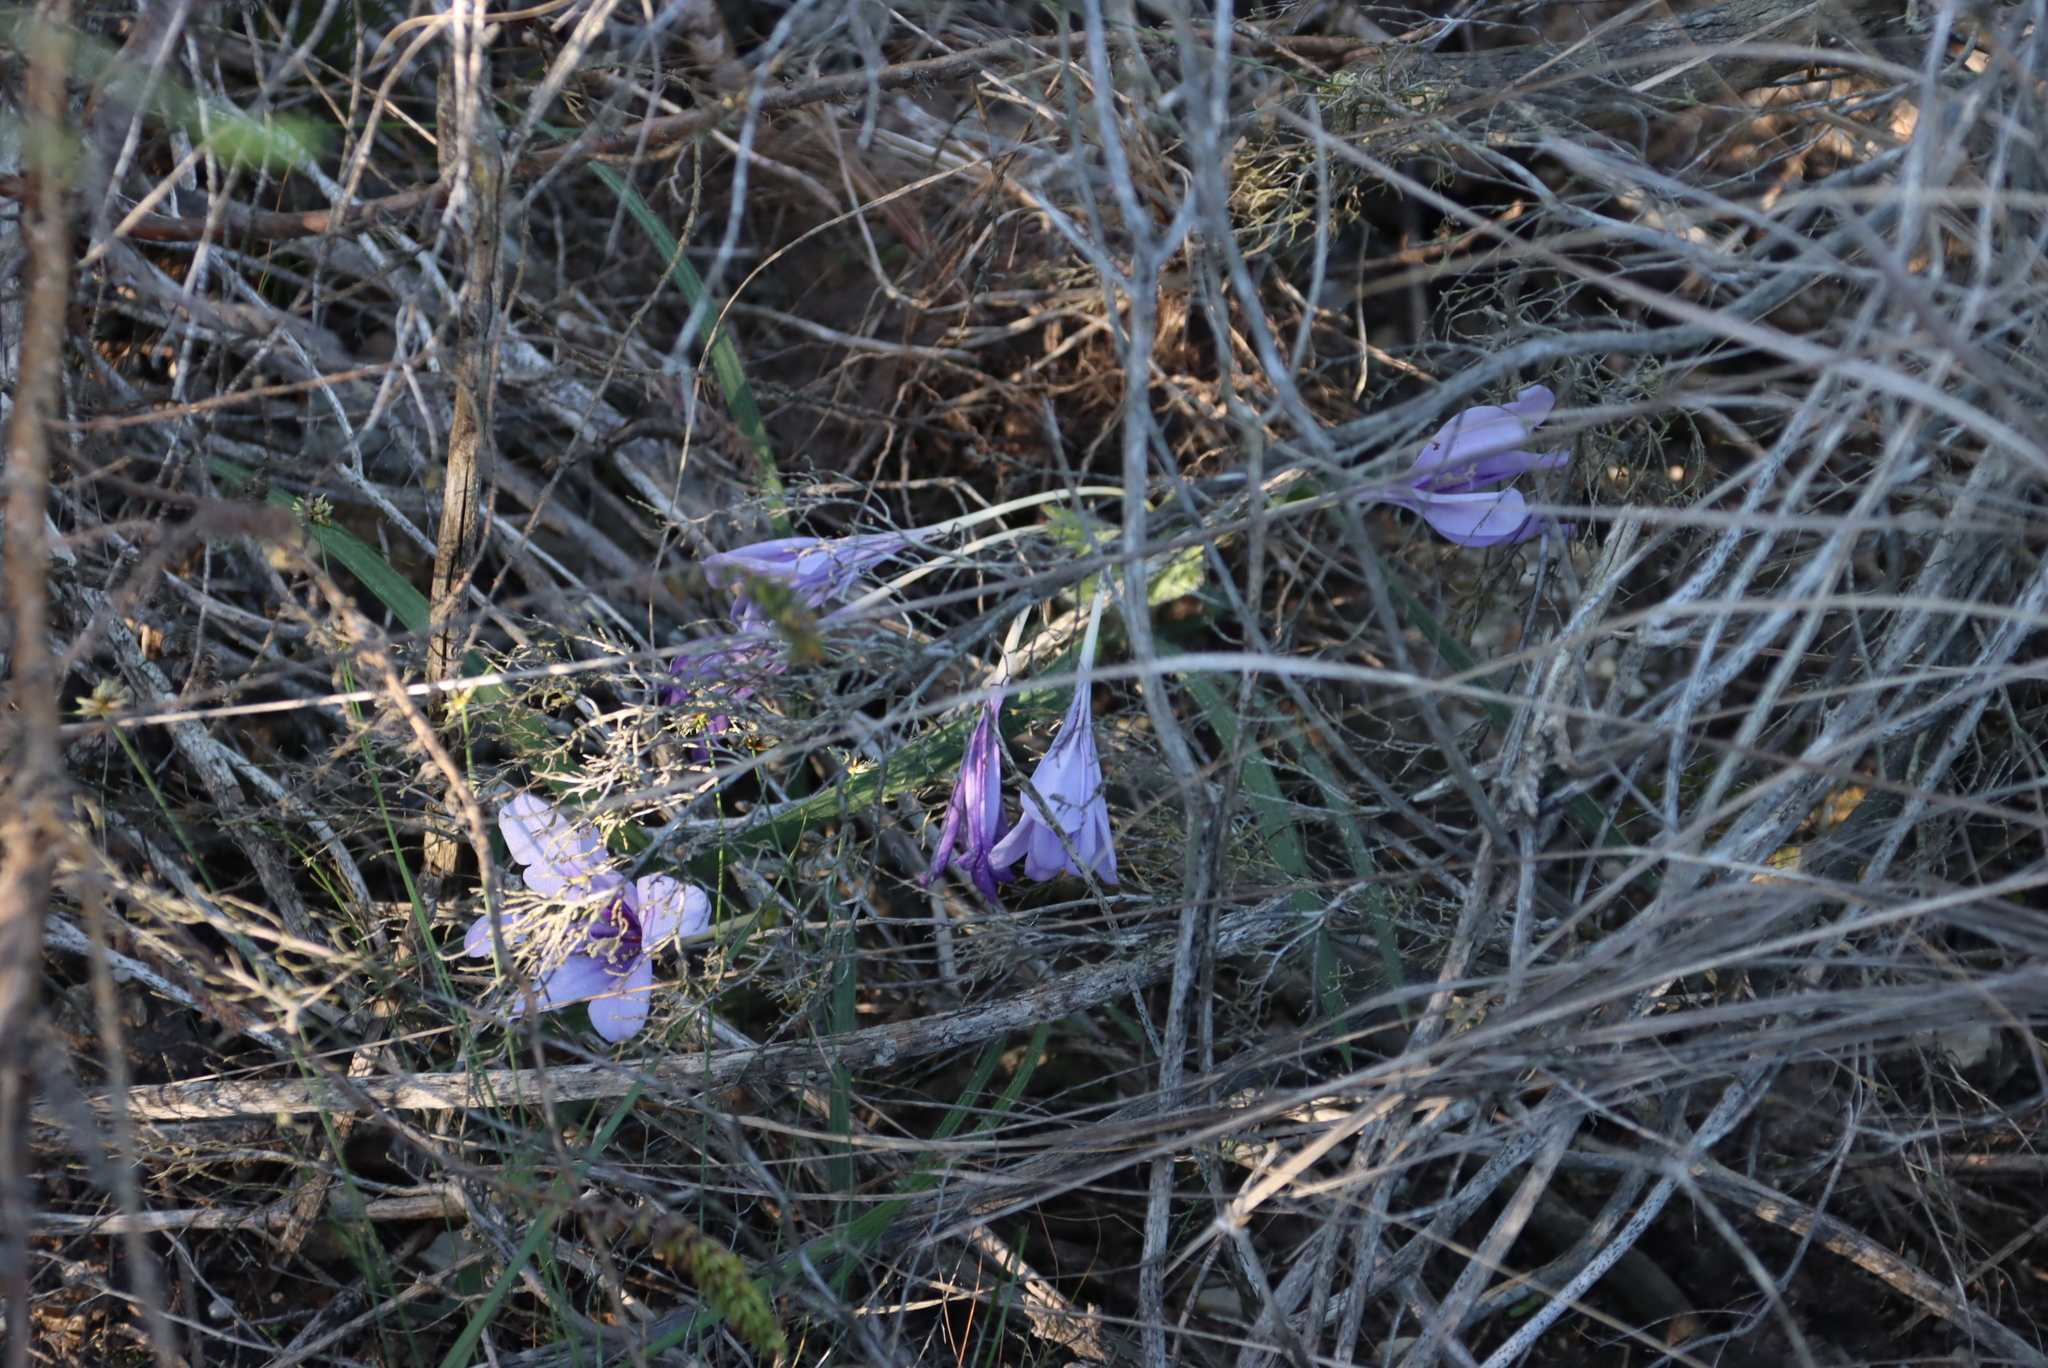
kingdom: Plantae
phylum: Tracheophyta
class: Liliopsida
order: Asparagales
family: Iridaceae
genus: Babiana
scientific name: Babiana sambucina
